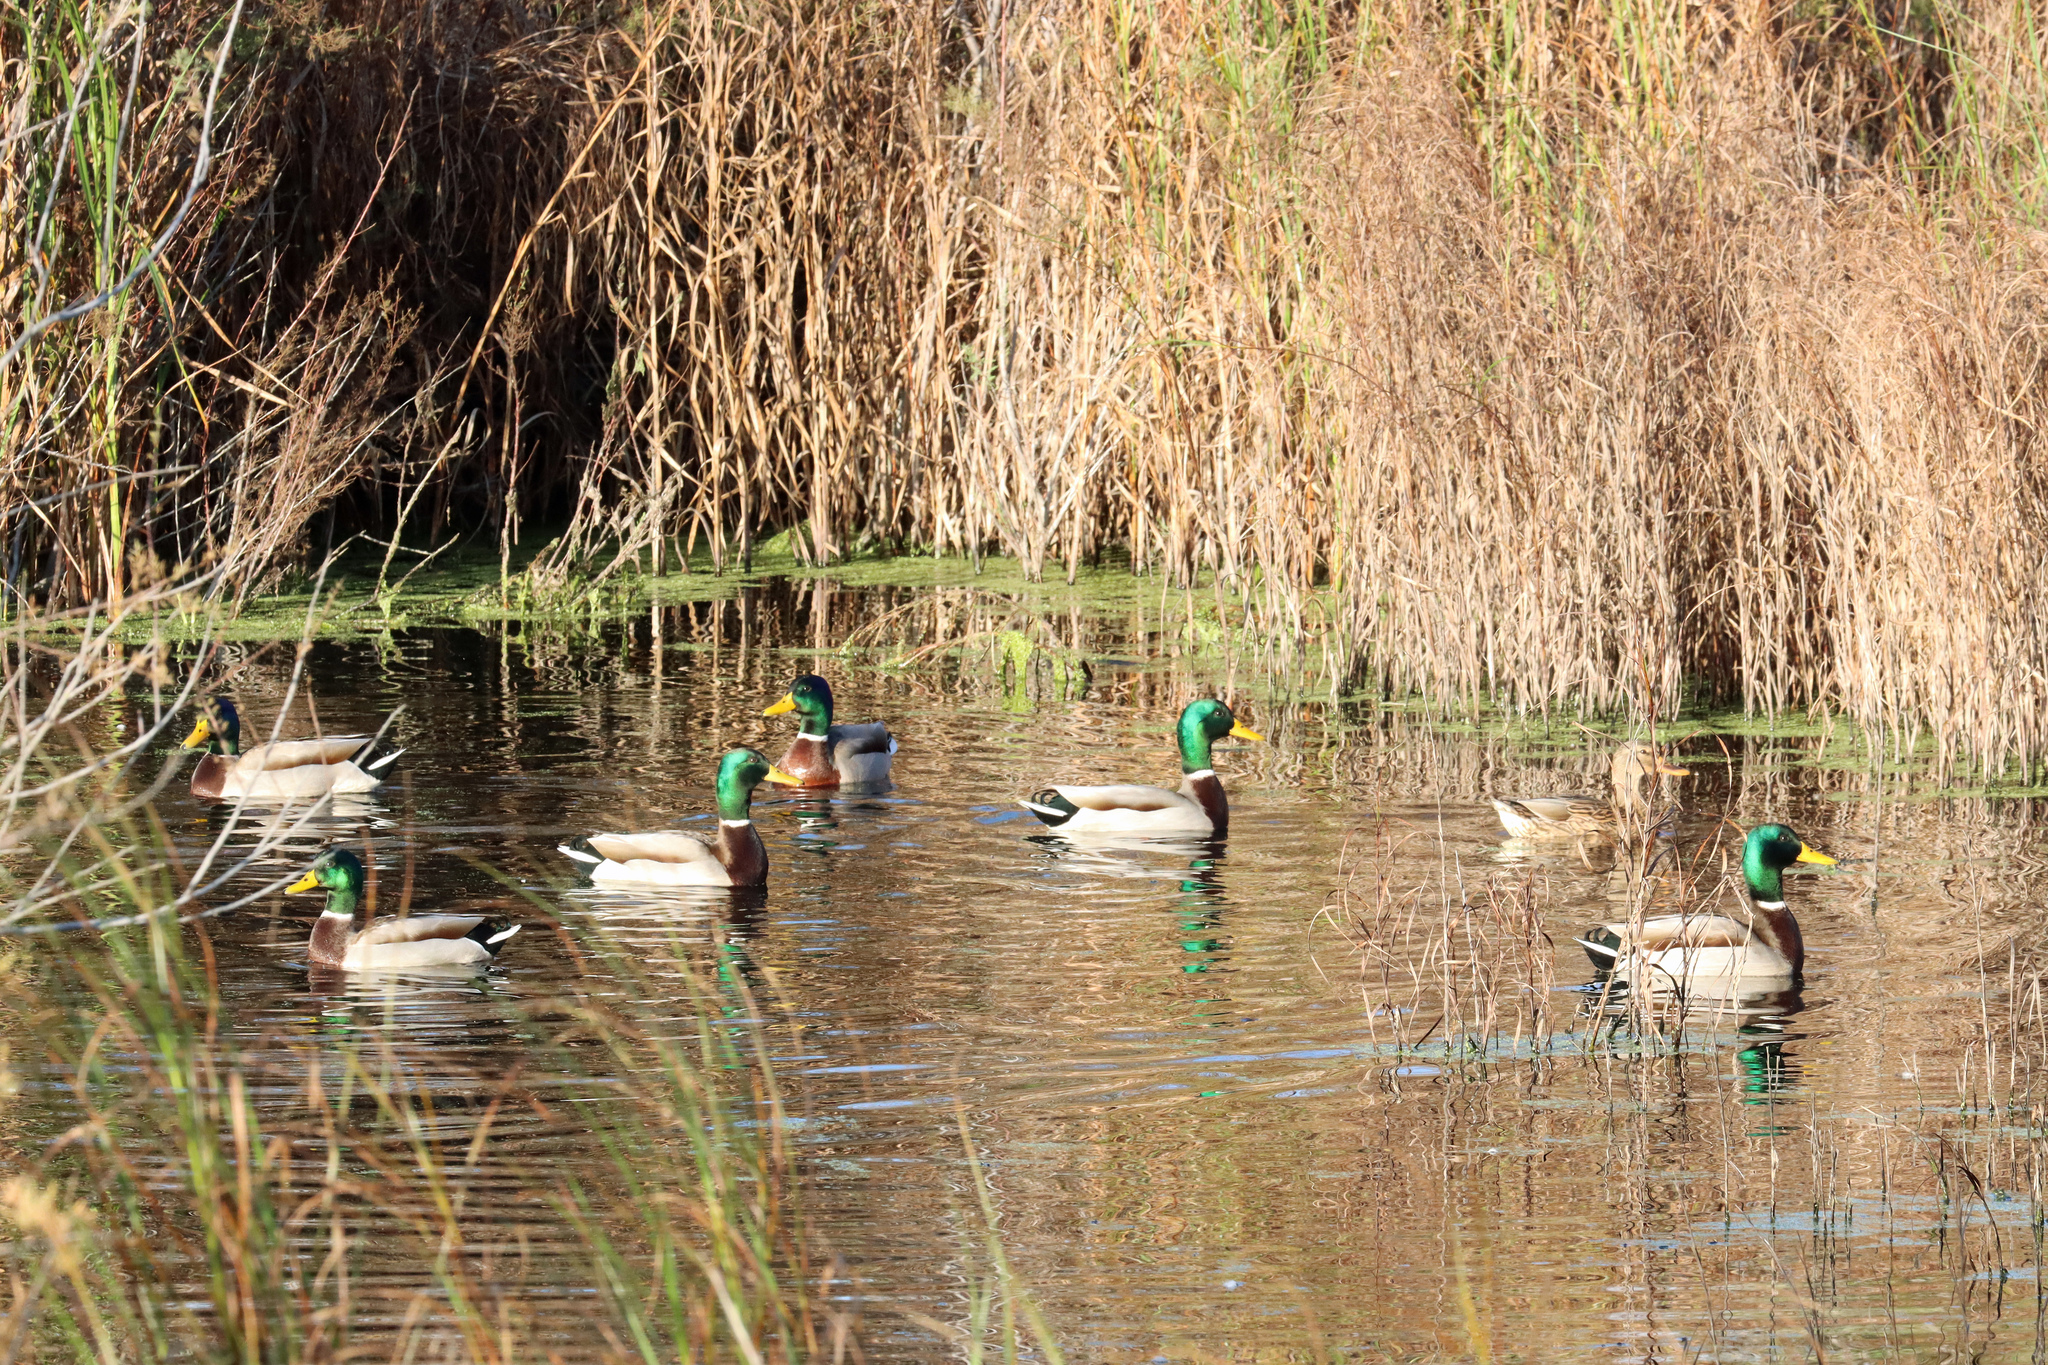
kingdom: Animalia
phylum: Chordata
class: Aves
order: Anseriformes
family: Anatidae
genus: Anas
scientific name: Anas platyrhynchos
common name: Mallard
